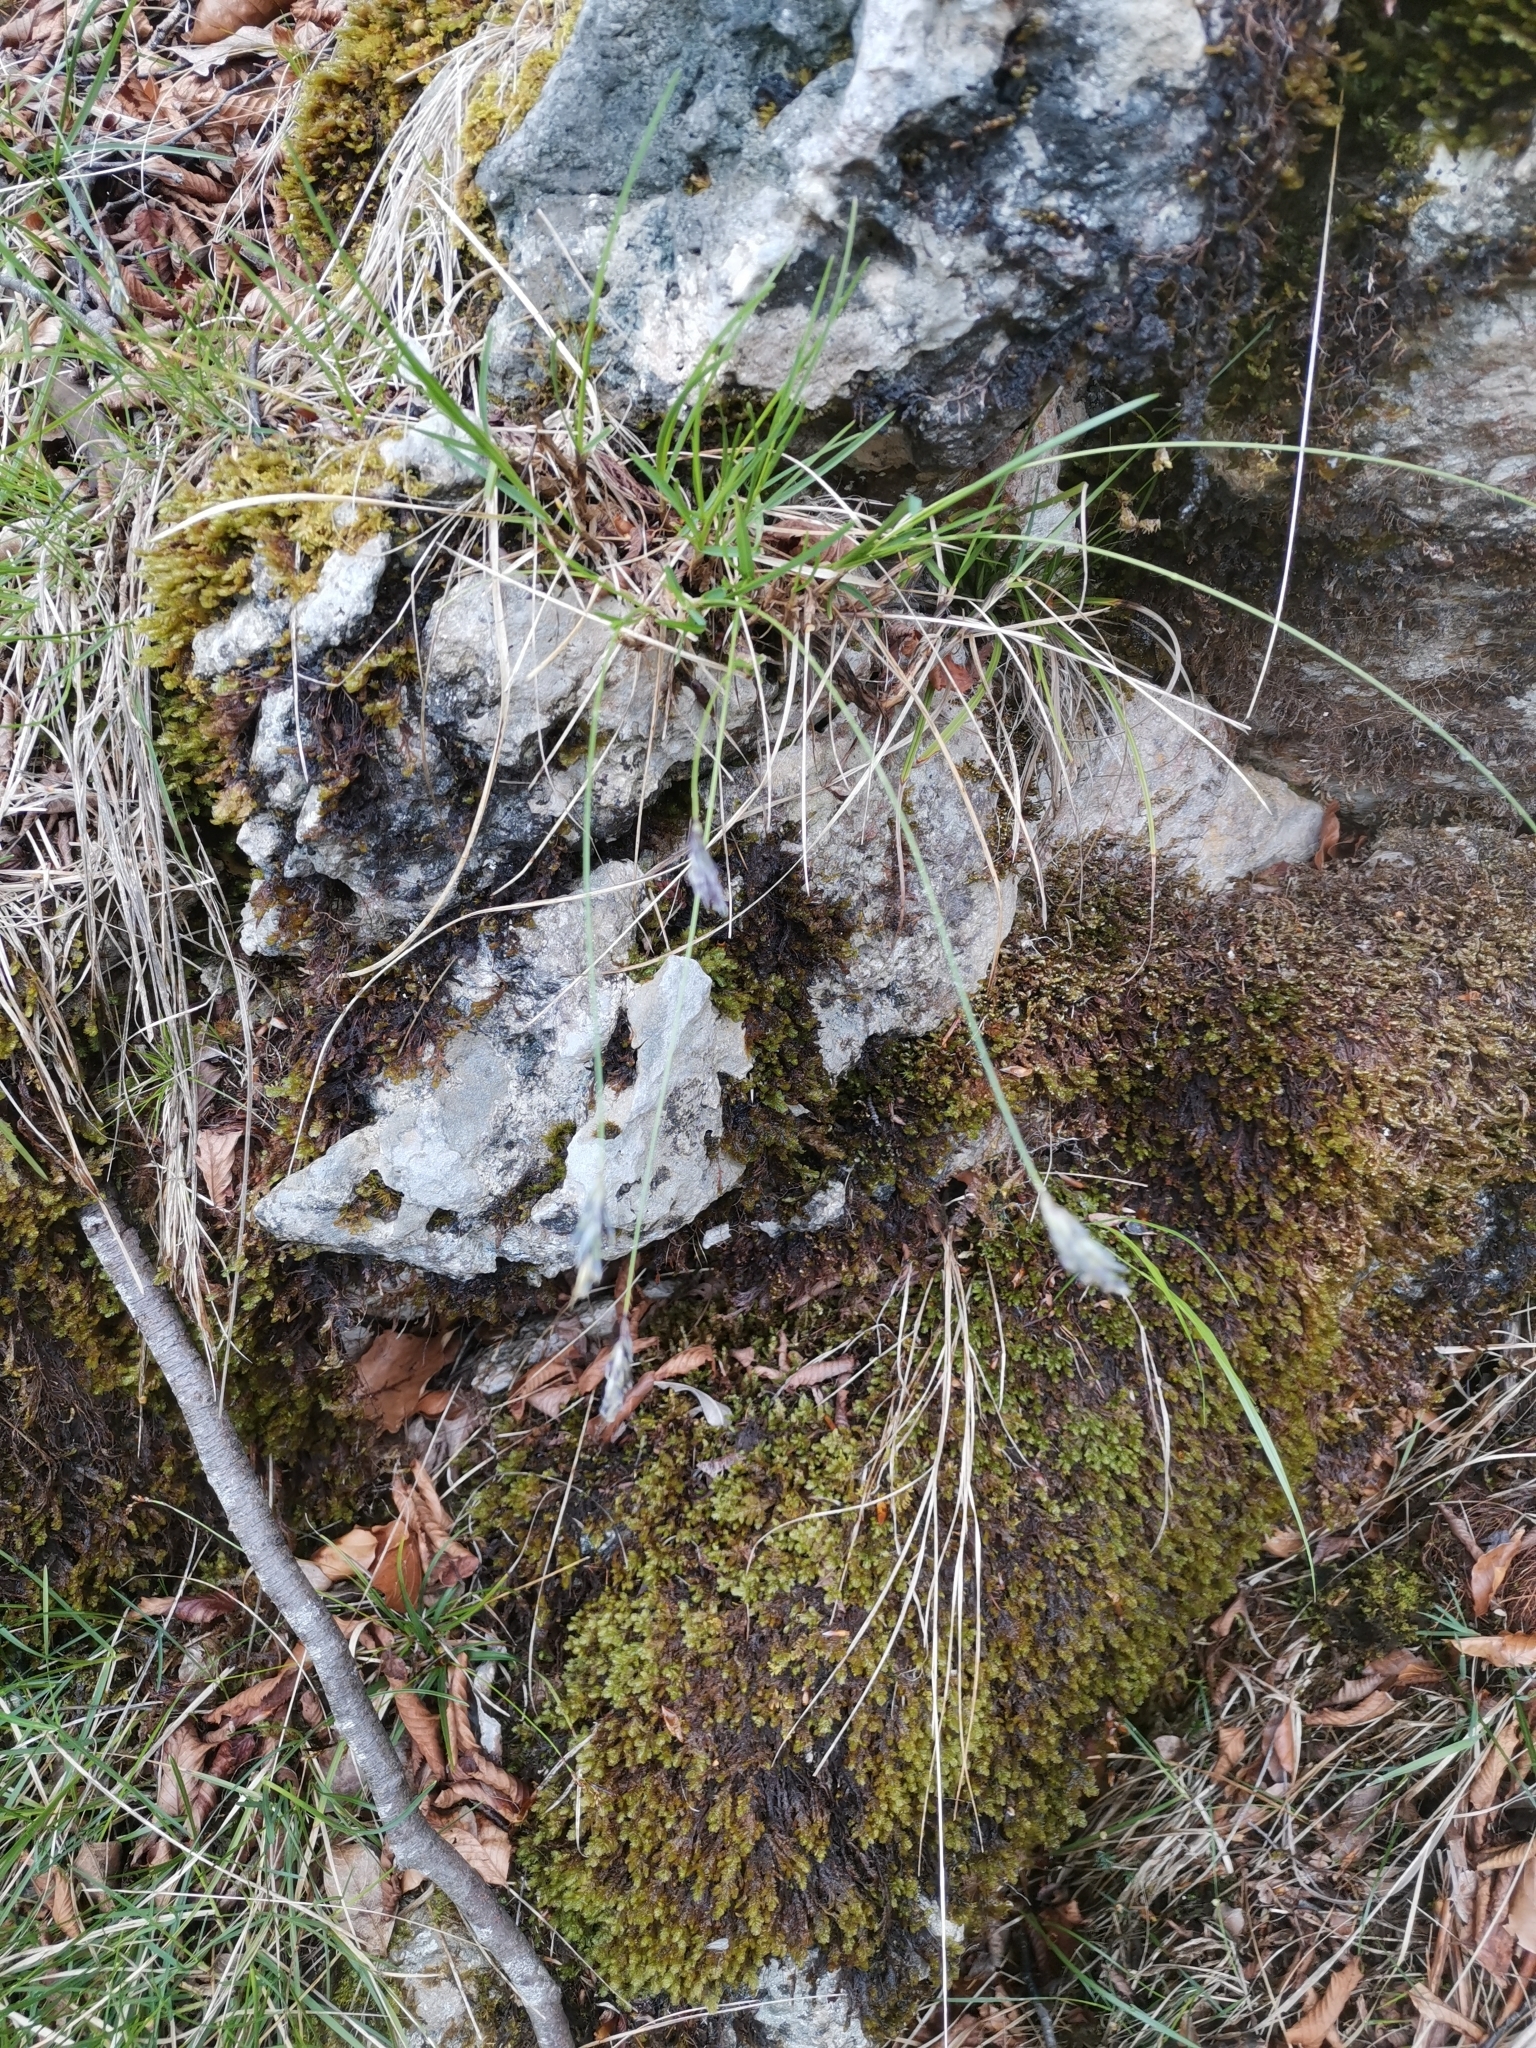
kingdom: Plantae
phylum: Tracheophyta
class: Liliopsida
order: Poales
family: Poaceae
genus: Sesleria
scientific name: Sesleria caerulea
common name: Blue moor-grass
